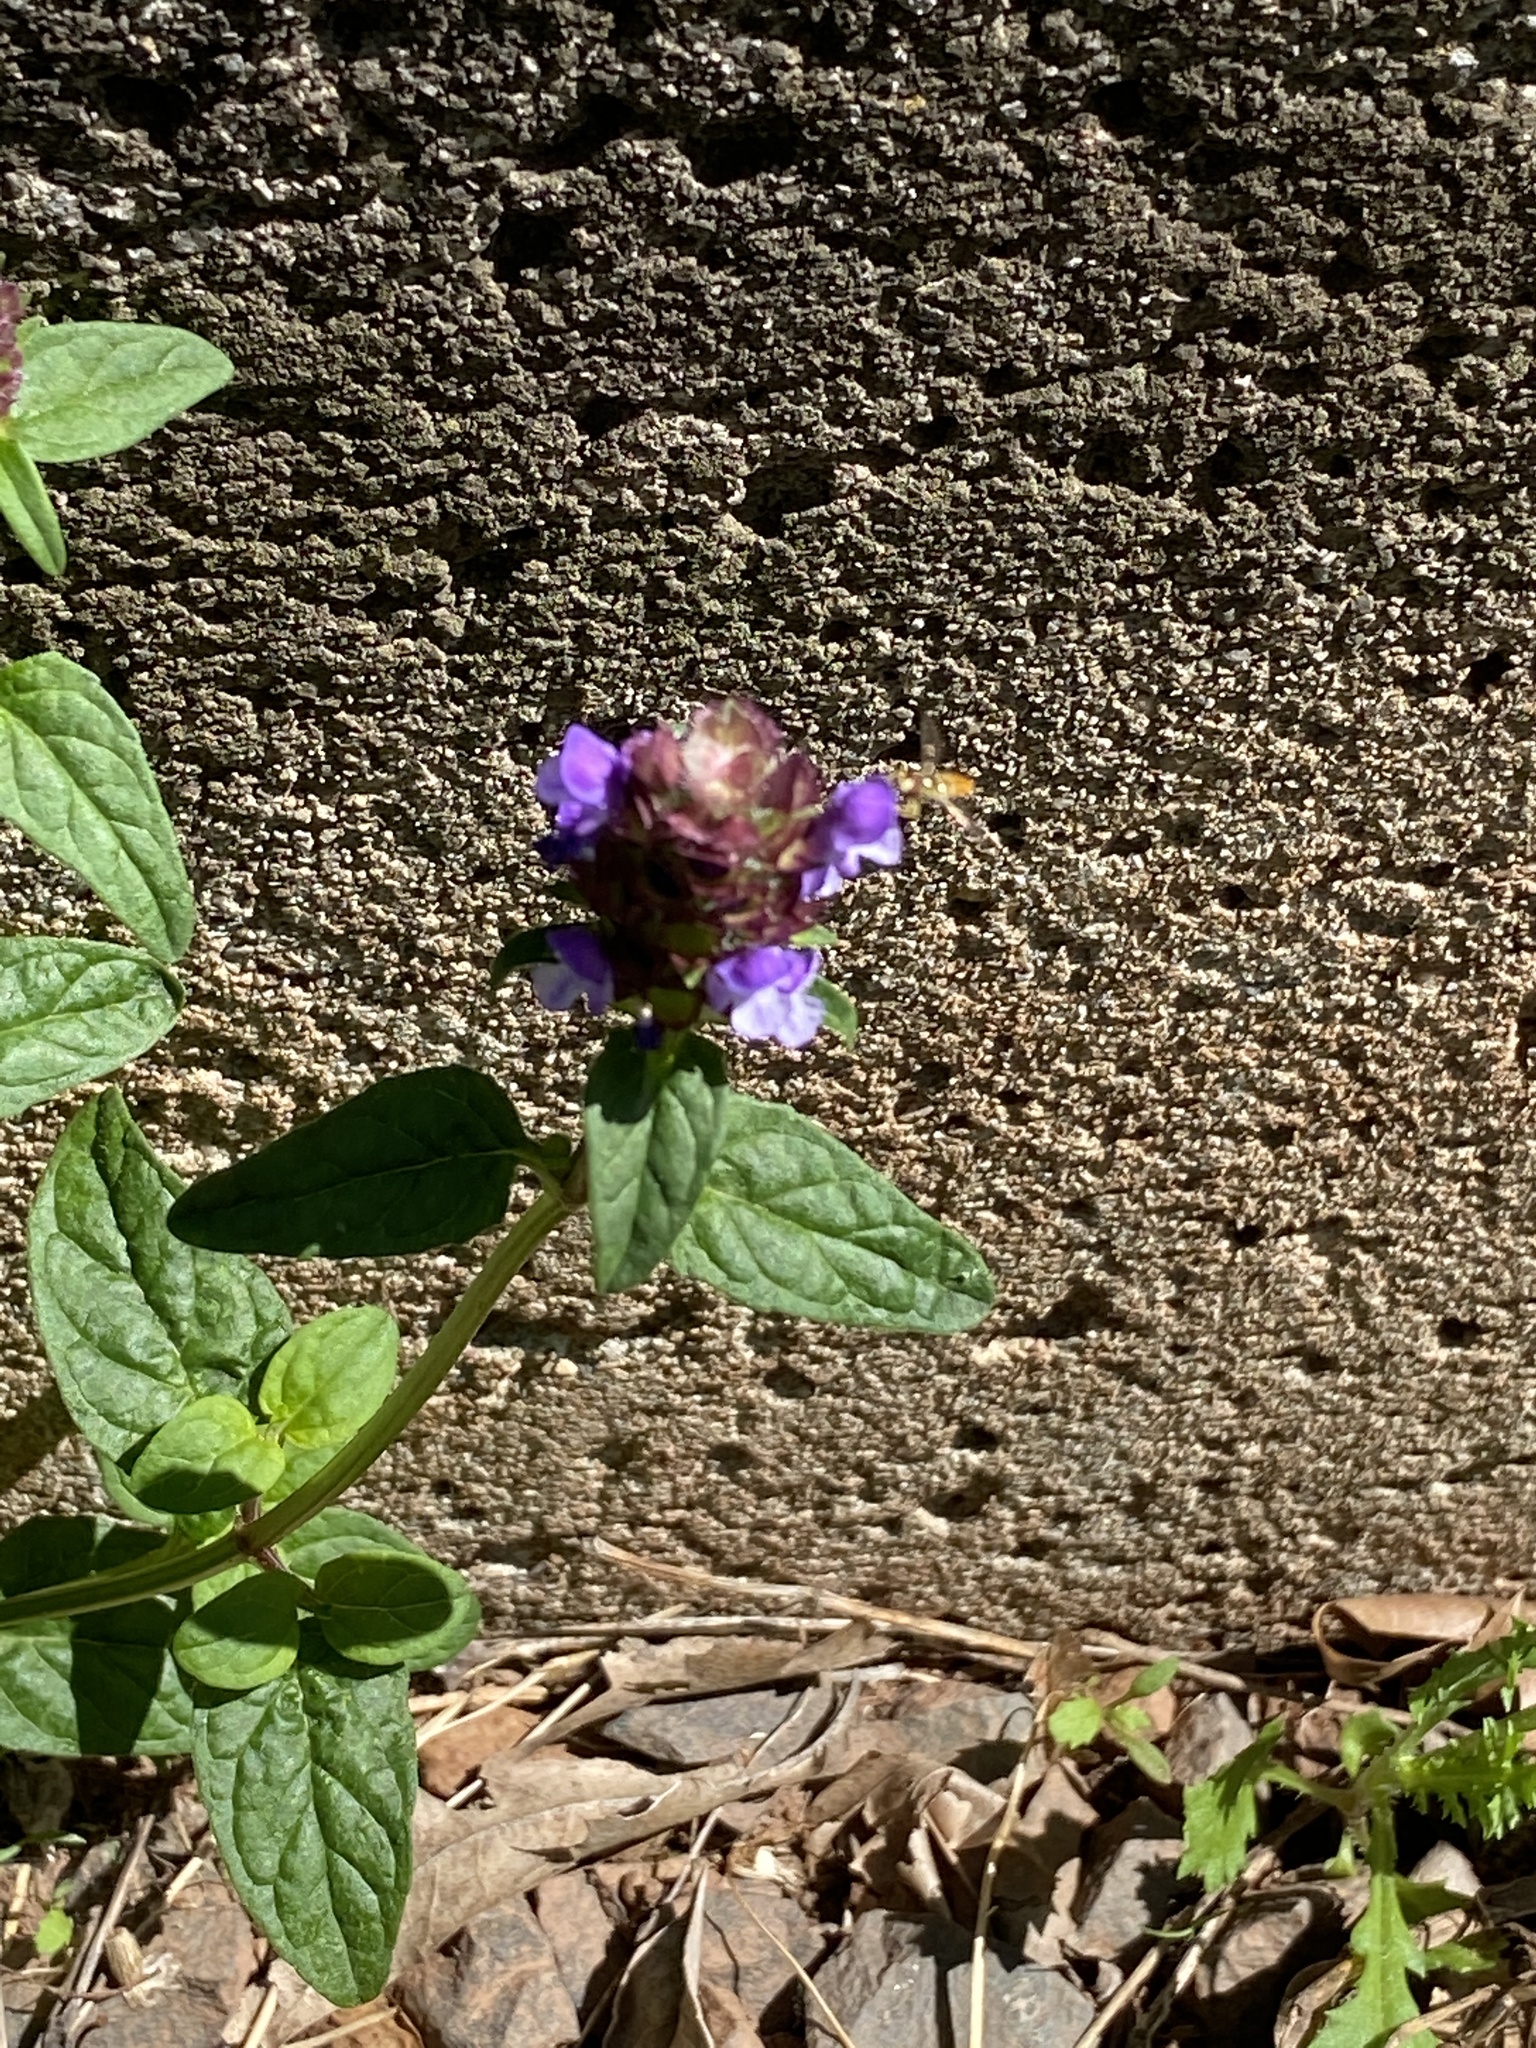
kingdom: Plantae
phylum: Tracheophyta
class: Magnoliopsida
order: Lamiales
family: Lamiaceae
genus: Prunella
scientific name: Prunella vulgaris
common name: Heal-all
